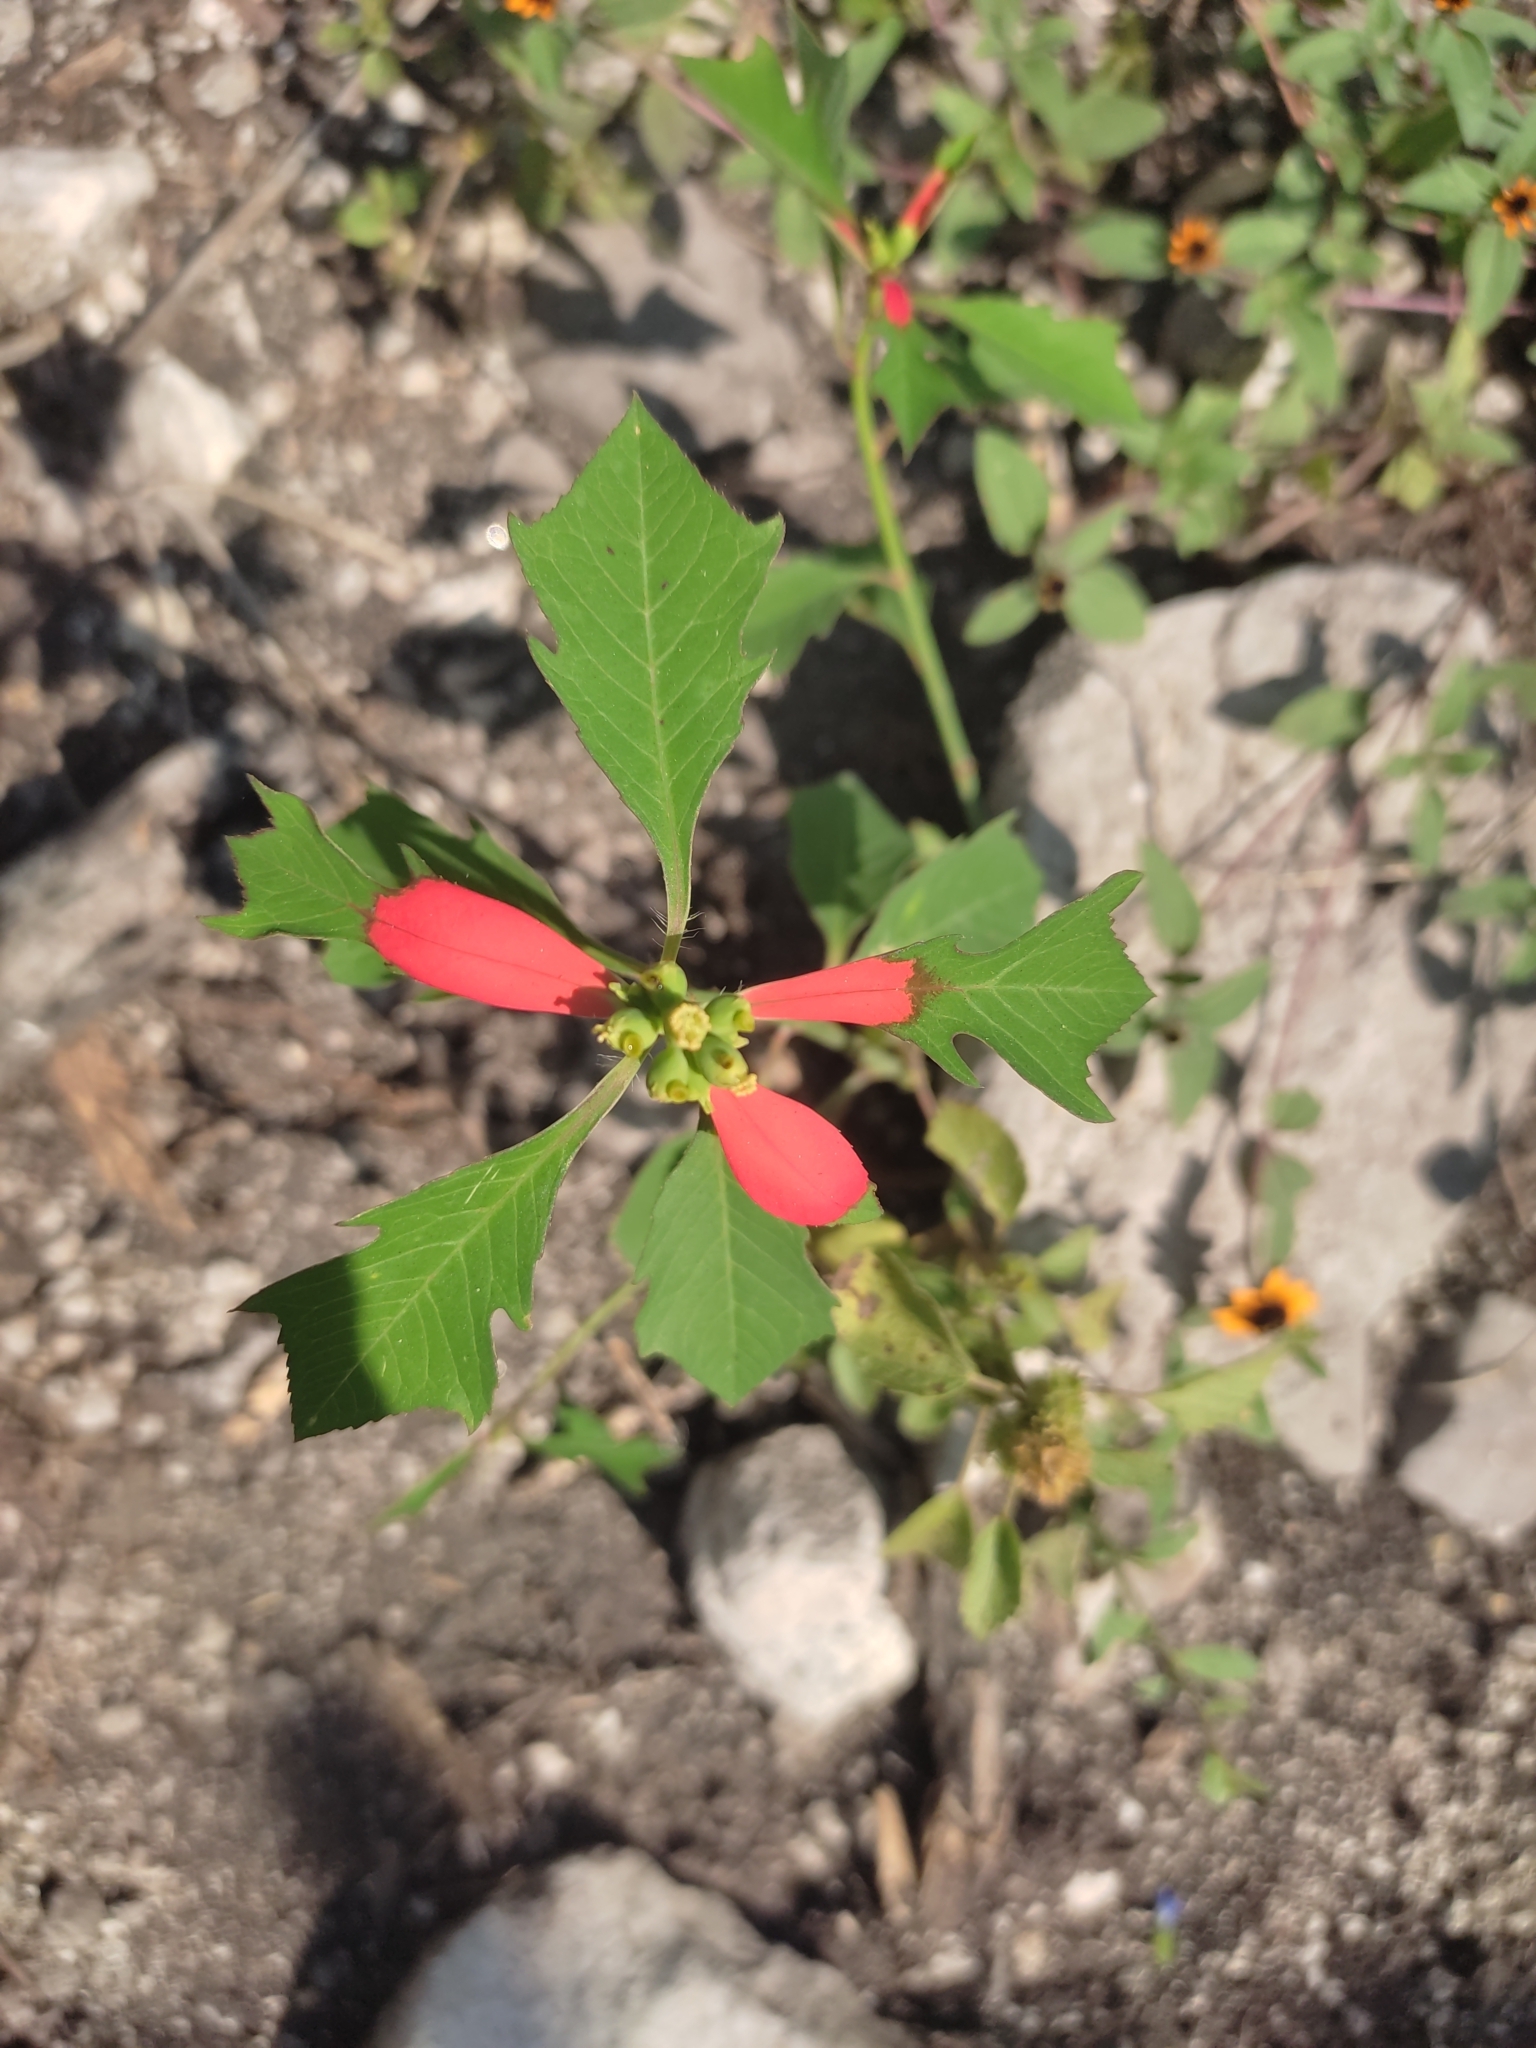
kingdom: Plantae
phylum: Tracheophyta
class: Magnoliopsida
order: Malpighiales
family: Euphorbiaceae
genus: Euphorbia
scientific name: Euphorbia heterophylla
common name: Mexican fireplant
